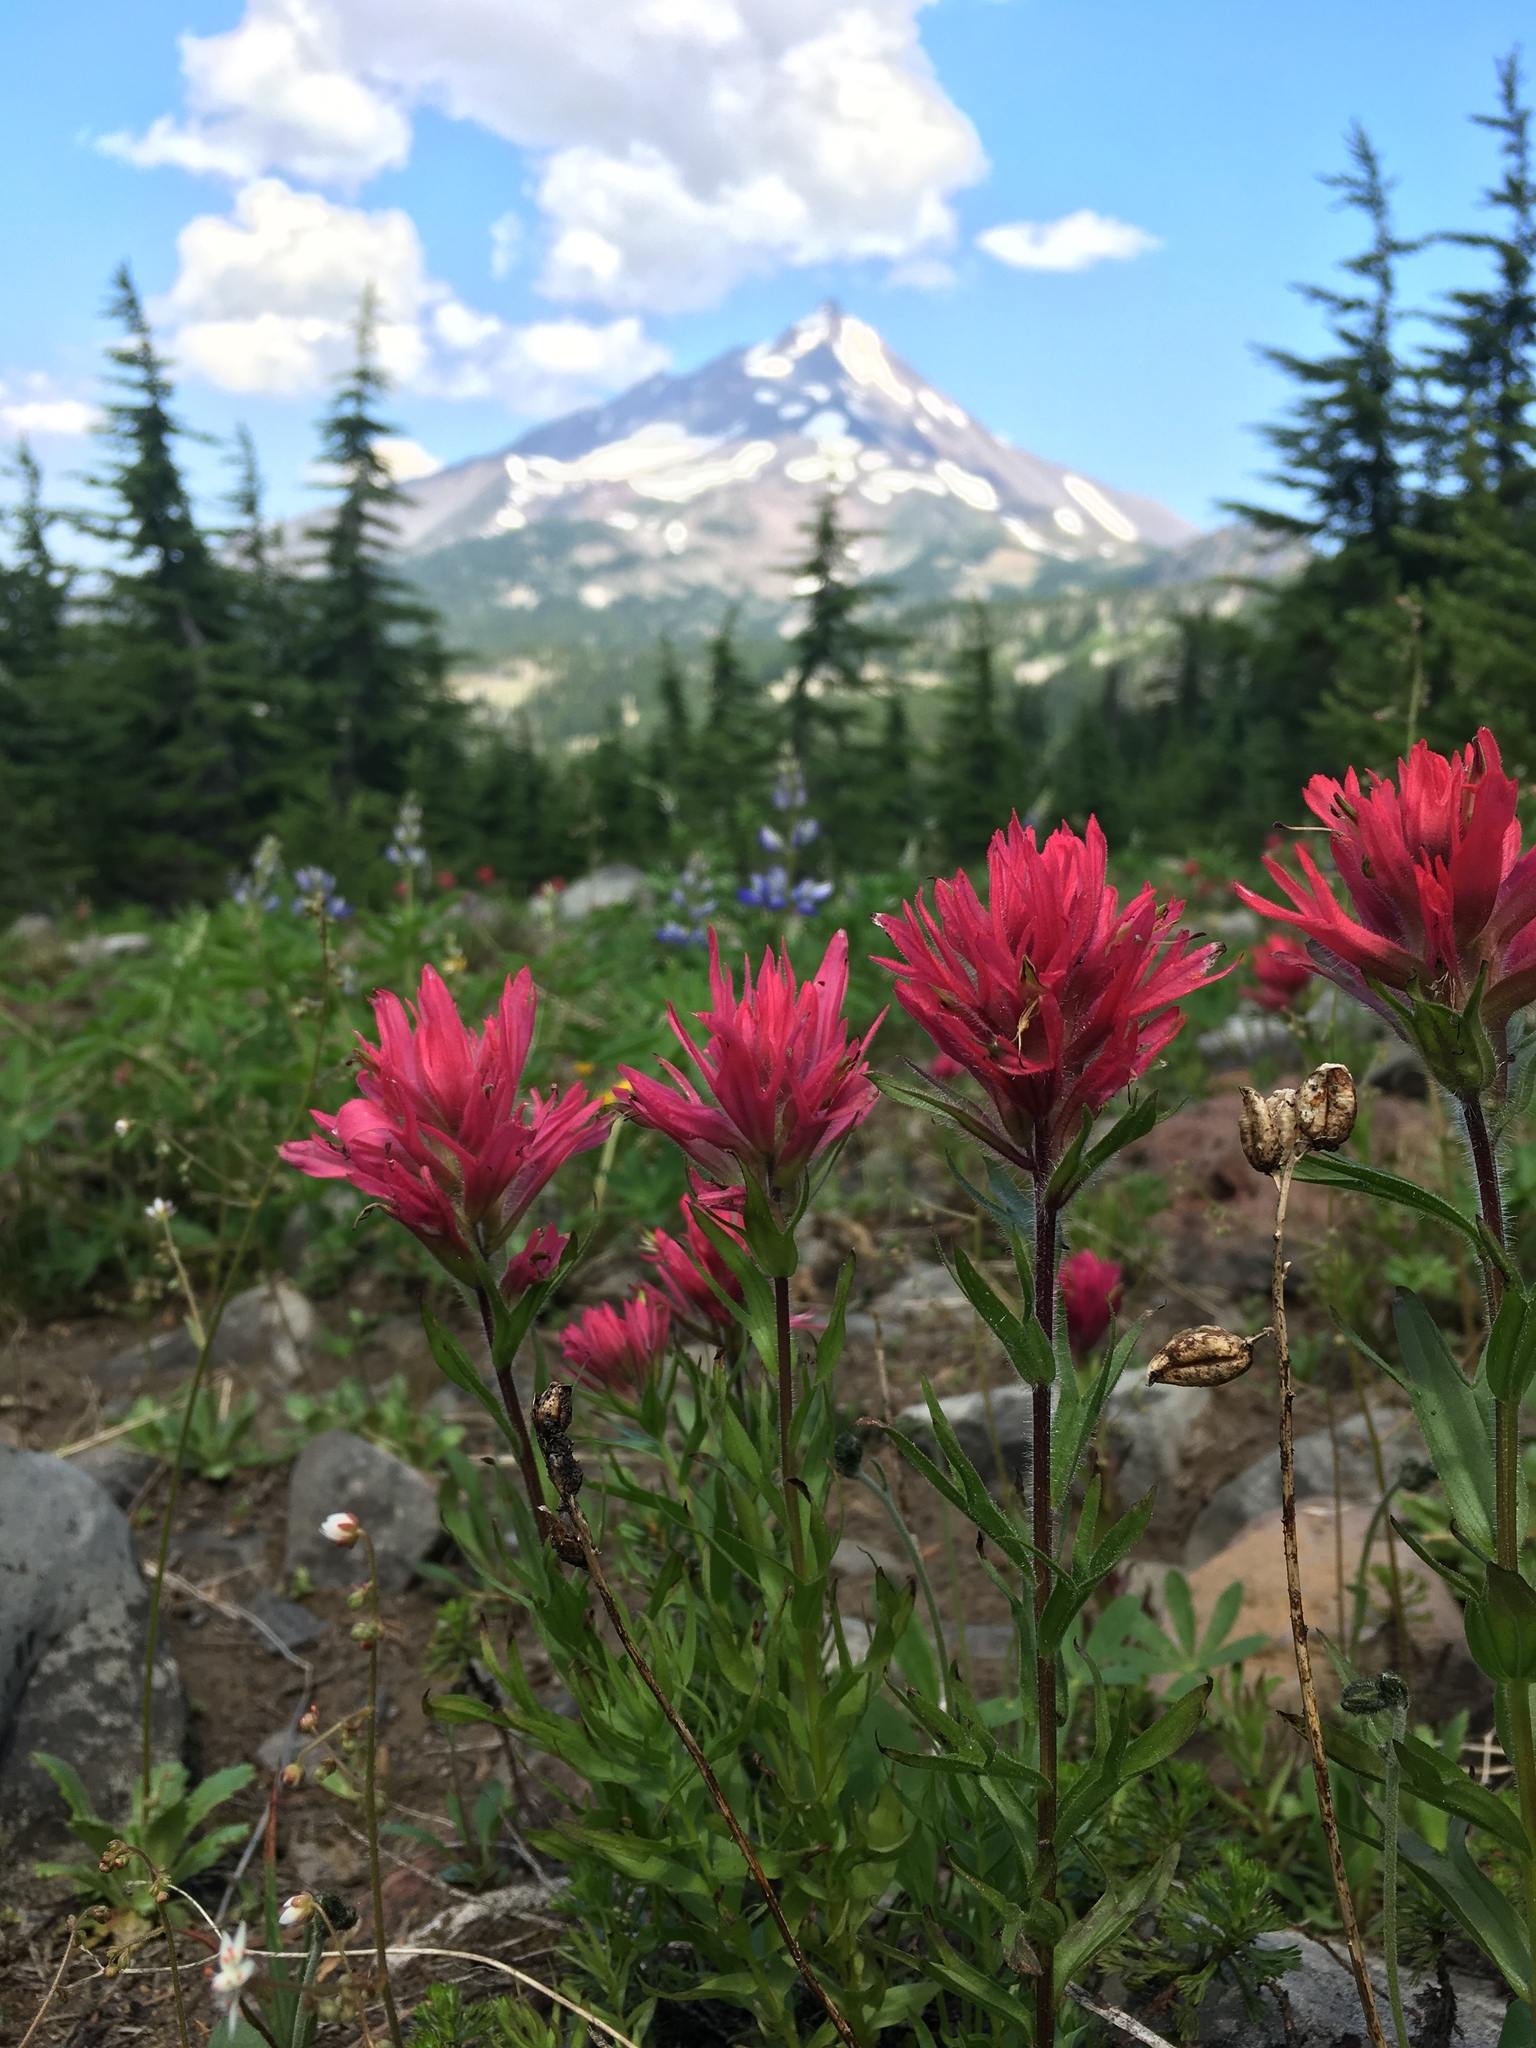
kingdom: Plantae
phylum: Tracheophyta
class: Magnoliopsida
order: Lamiales
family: Orobanchaceae
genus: Castilleja
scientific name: Castilleja parviflora
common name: Mountain paintbrush
